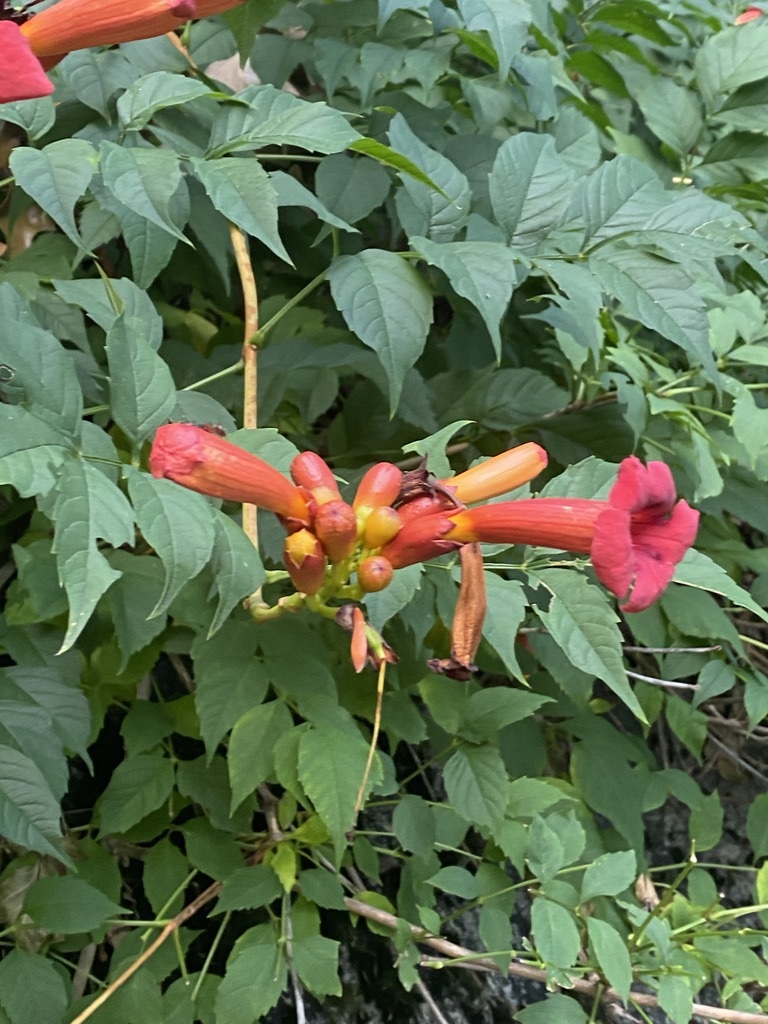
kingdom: Plantae
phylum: Tracheophyta
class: Magnoliopsida
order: Lamiales
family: Bignoniaceae
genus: Campsis
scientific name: Campsis radicans
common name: Trumpet-creeper
